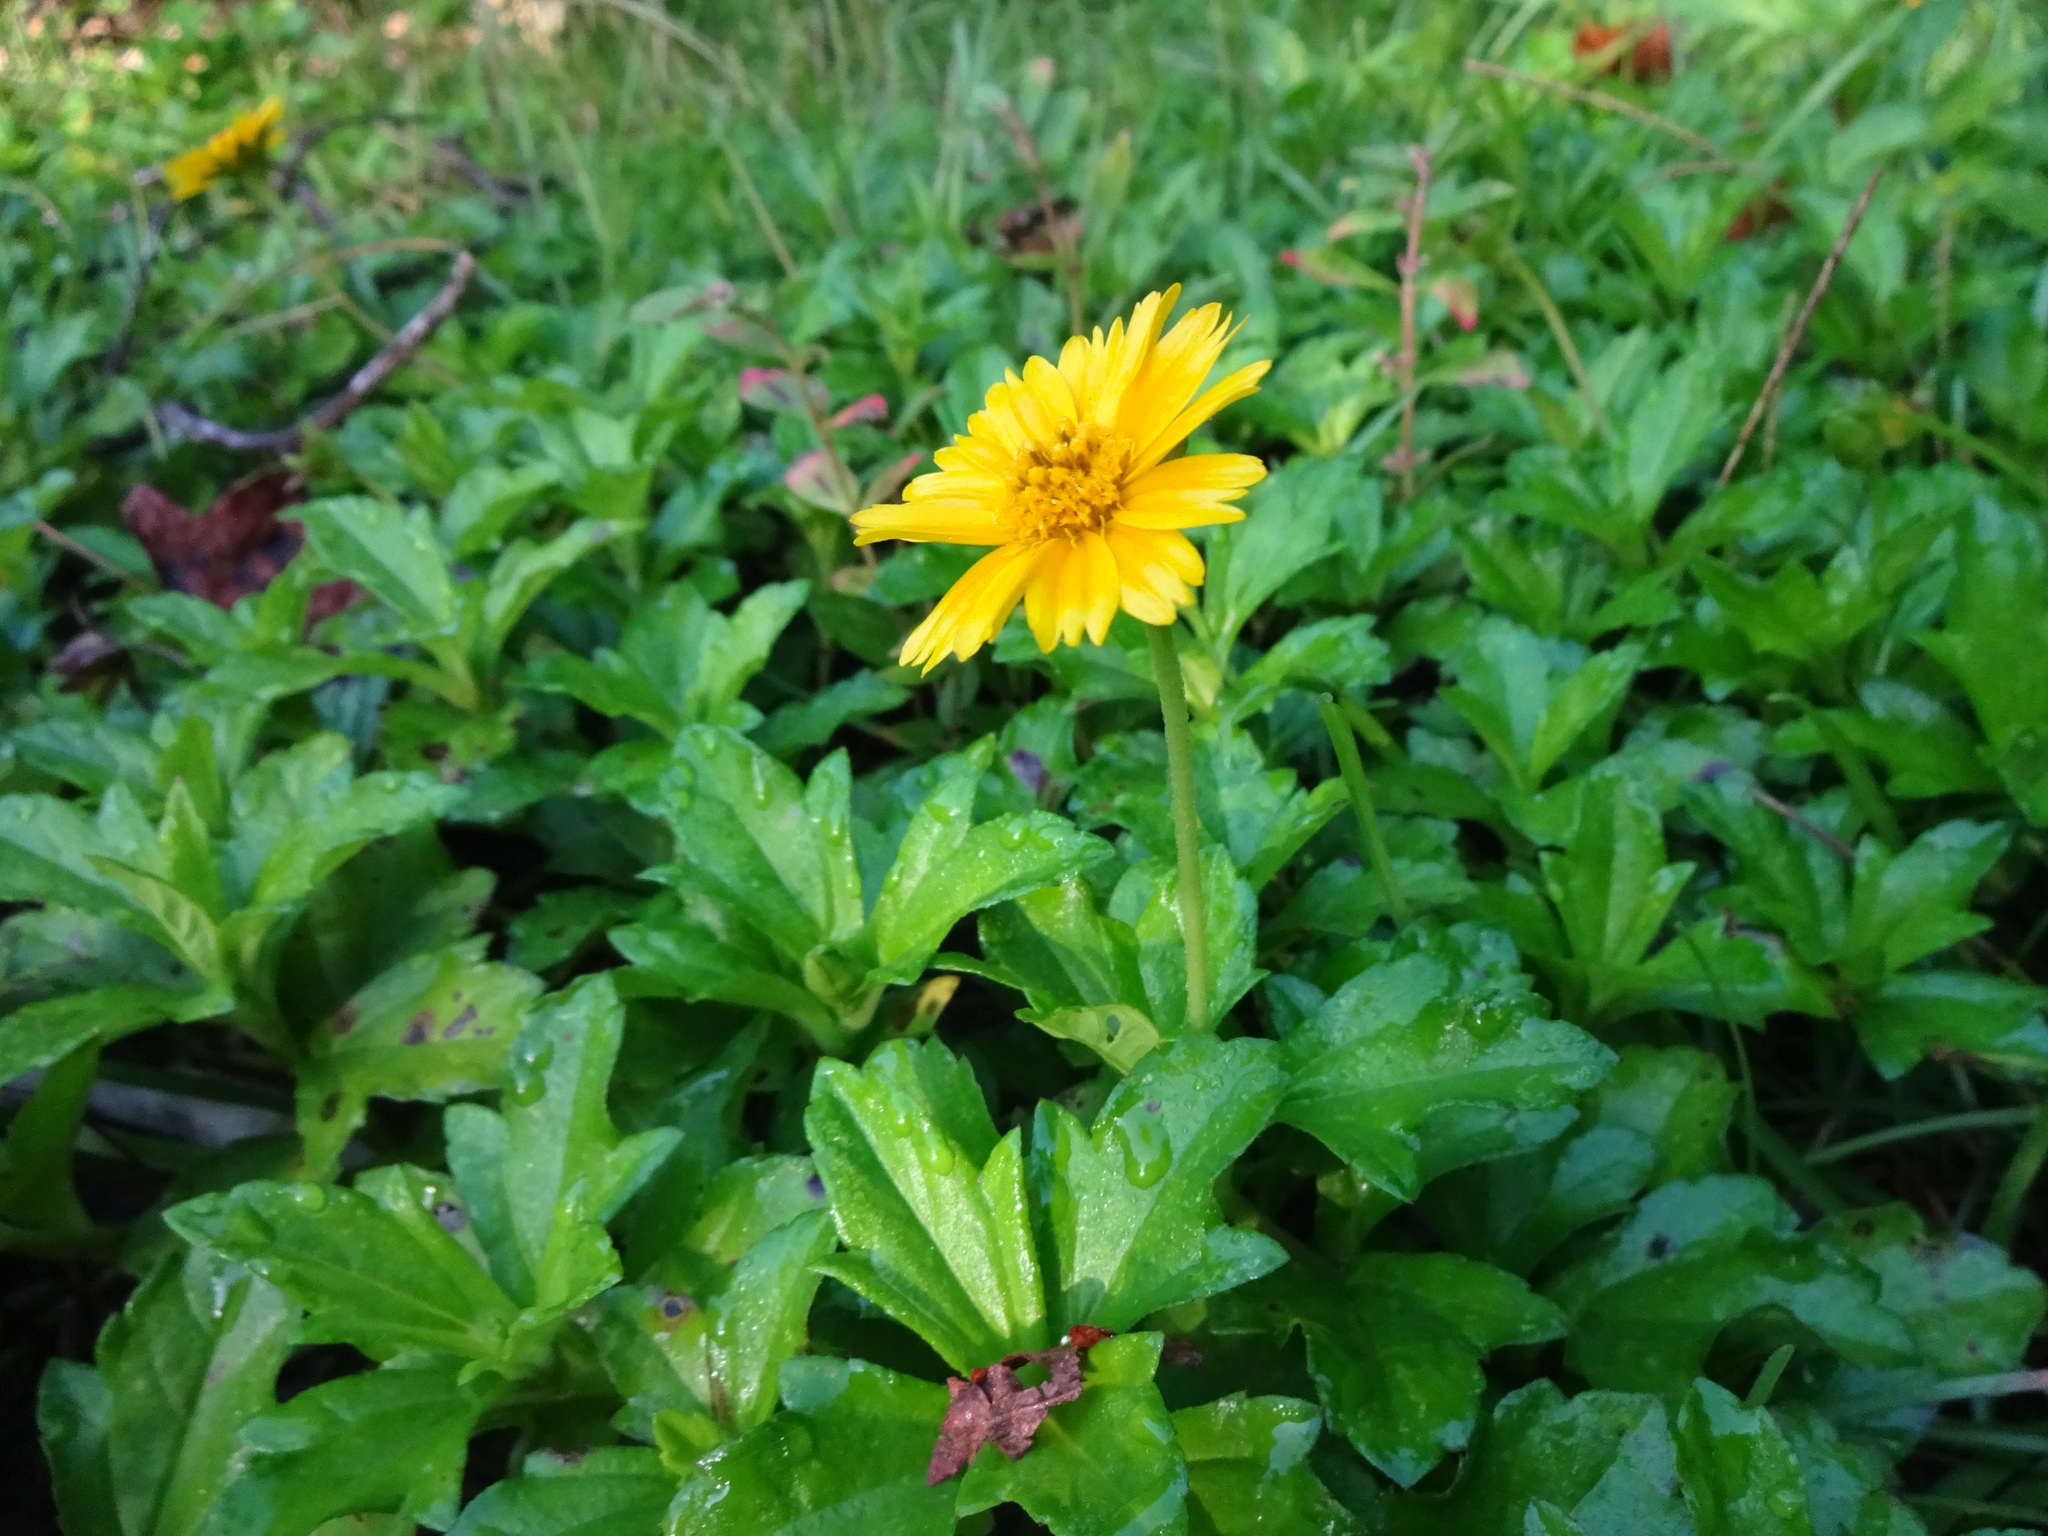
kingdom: Plantae
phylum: Tracheophyta
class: Magnoliopsida
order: Asterales
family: Asteraceae
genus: Sphagneticola
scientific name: Sphagneticola trilobata
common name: Bay biscayne creeping-oxeye
